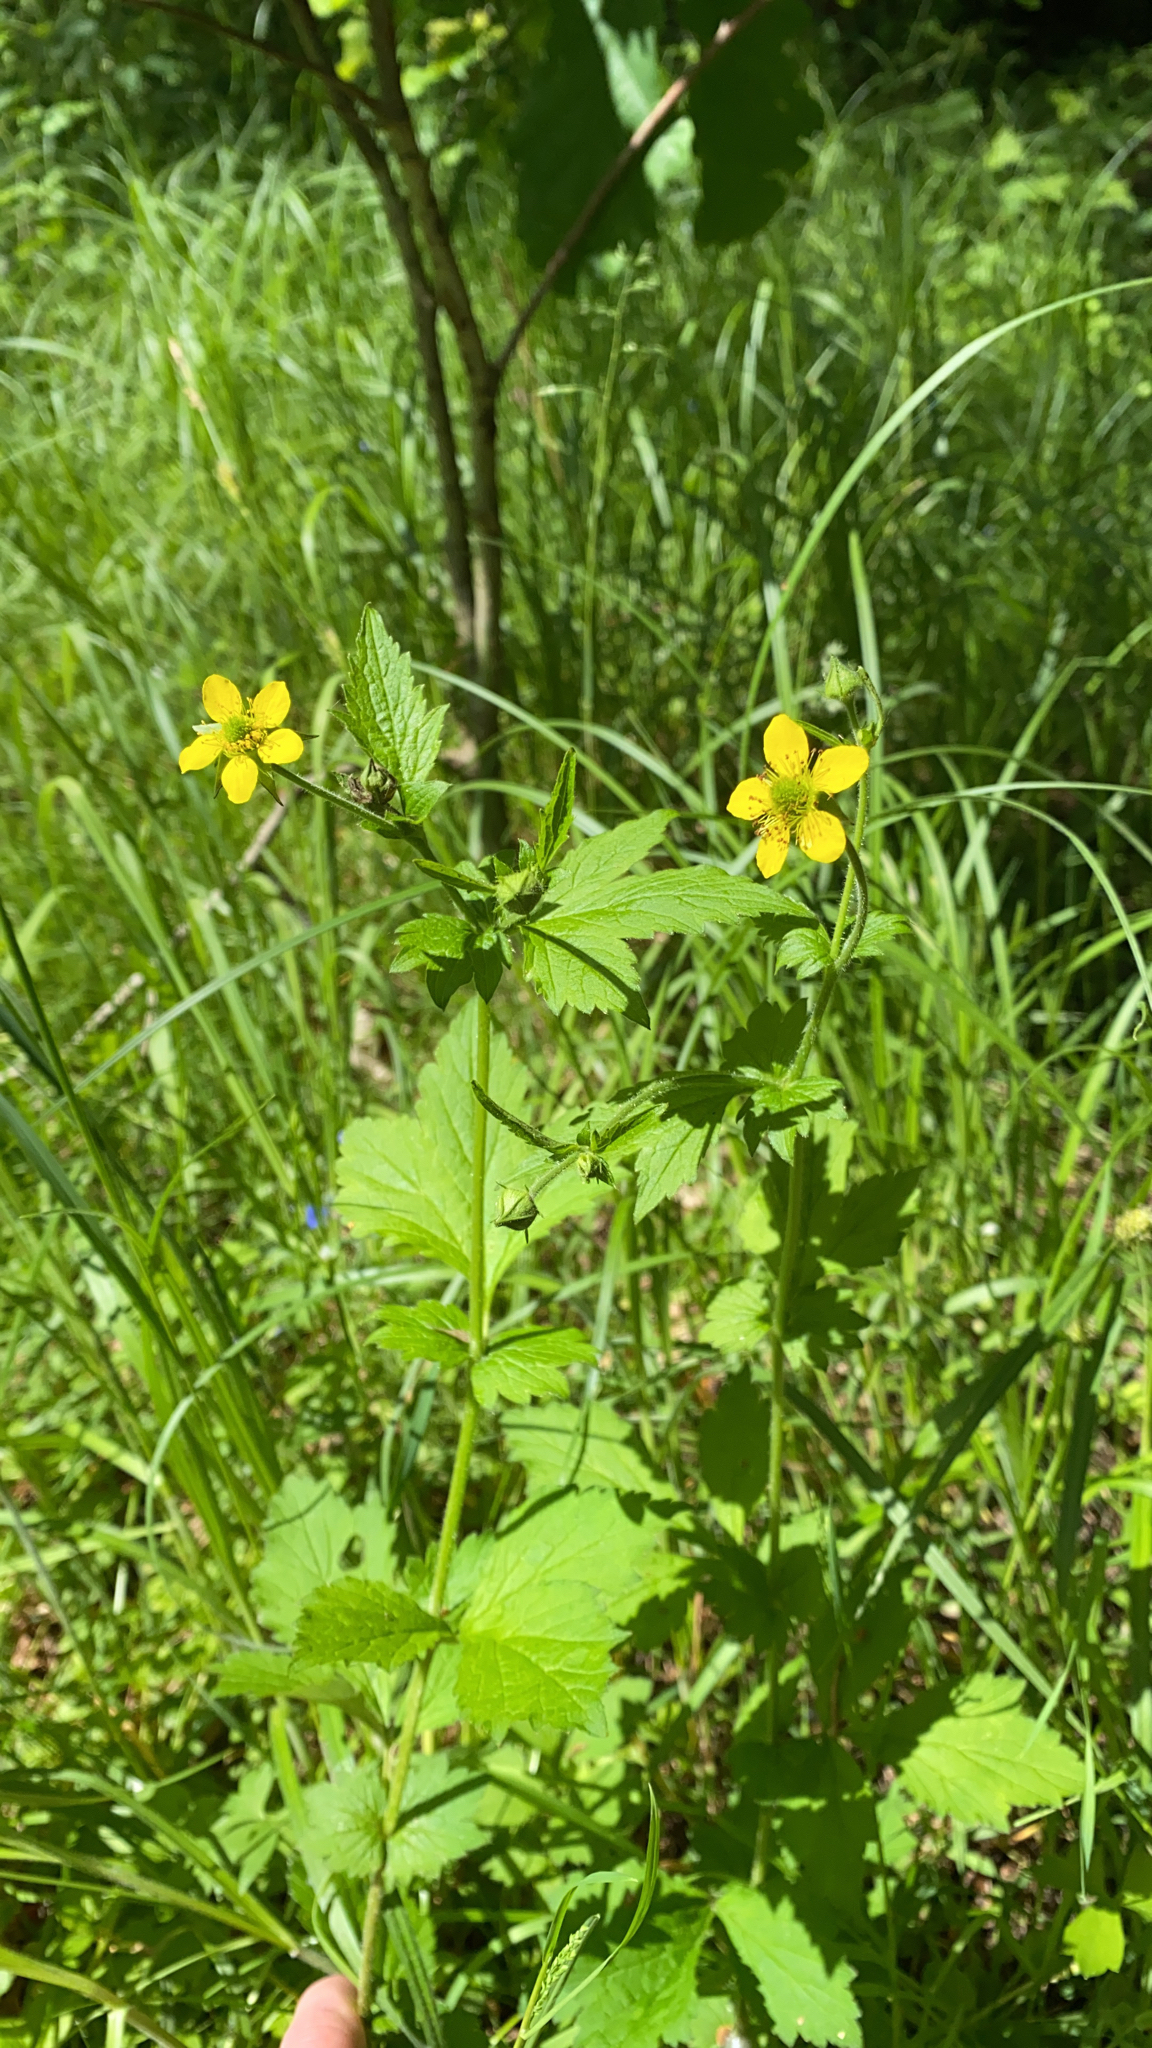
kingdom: Plantae
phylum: Tracheophyta
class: Magnoliopsida
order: Rosales
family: Rosaceae
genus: Geum
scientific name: Geum urbanum
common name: Wood avens
